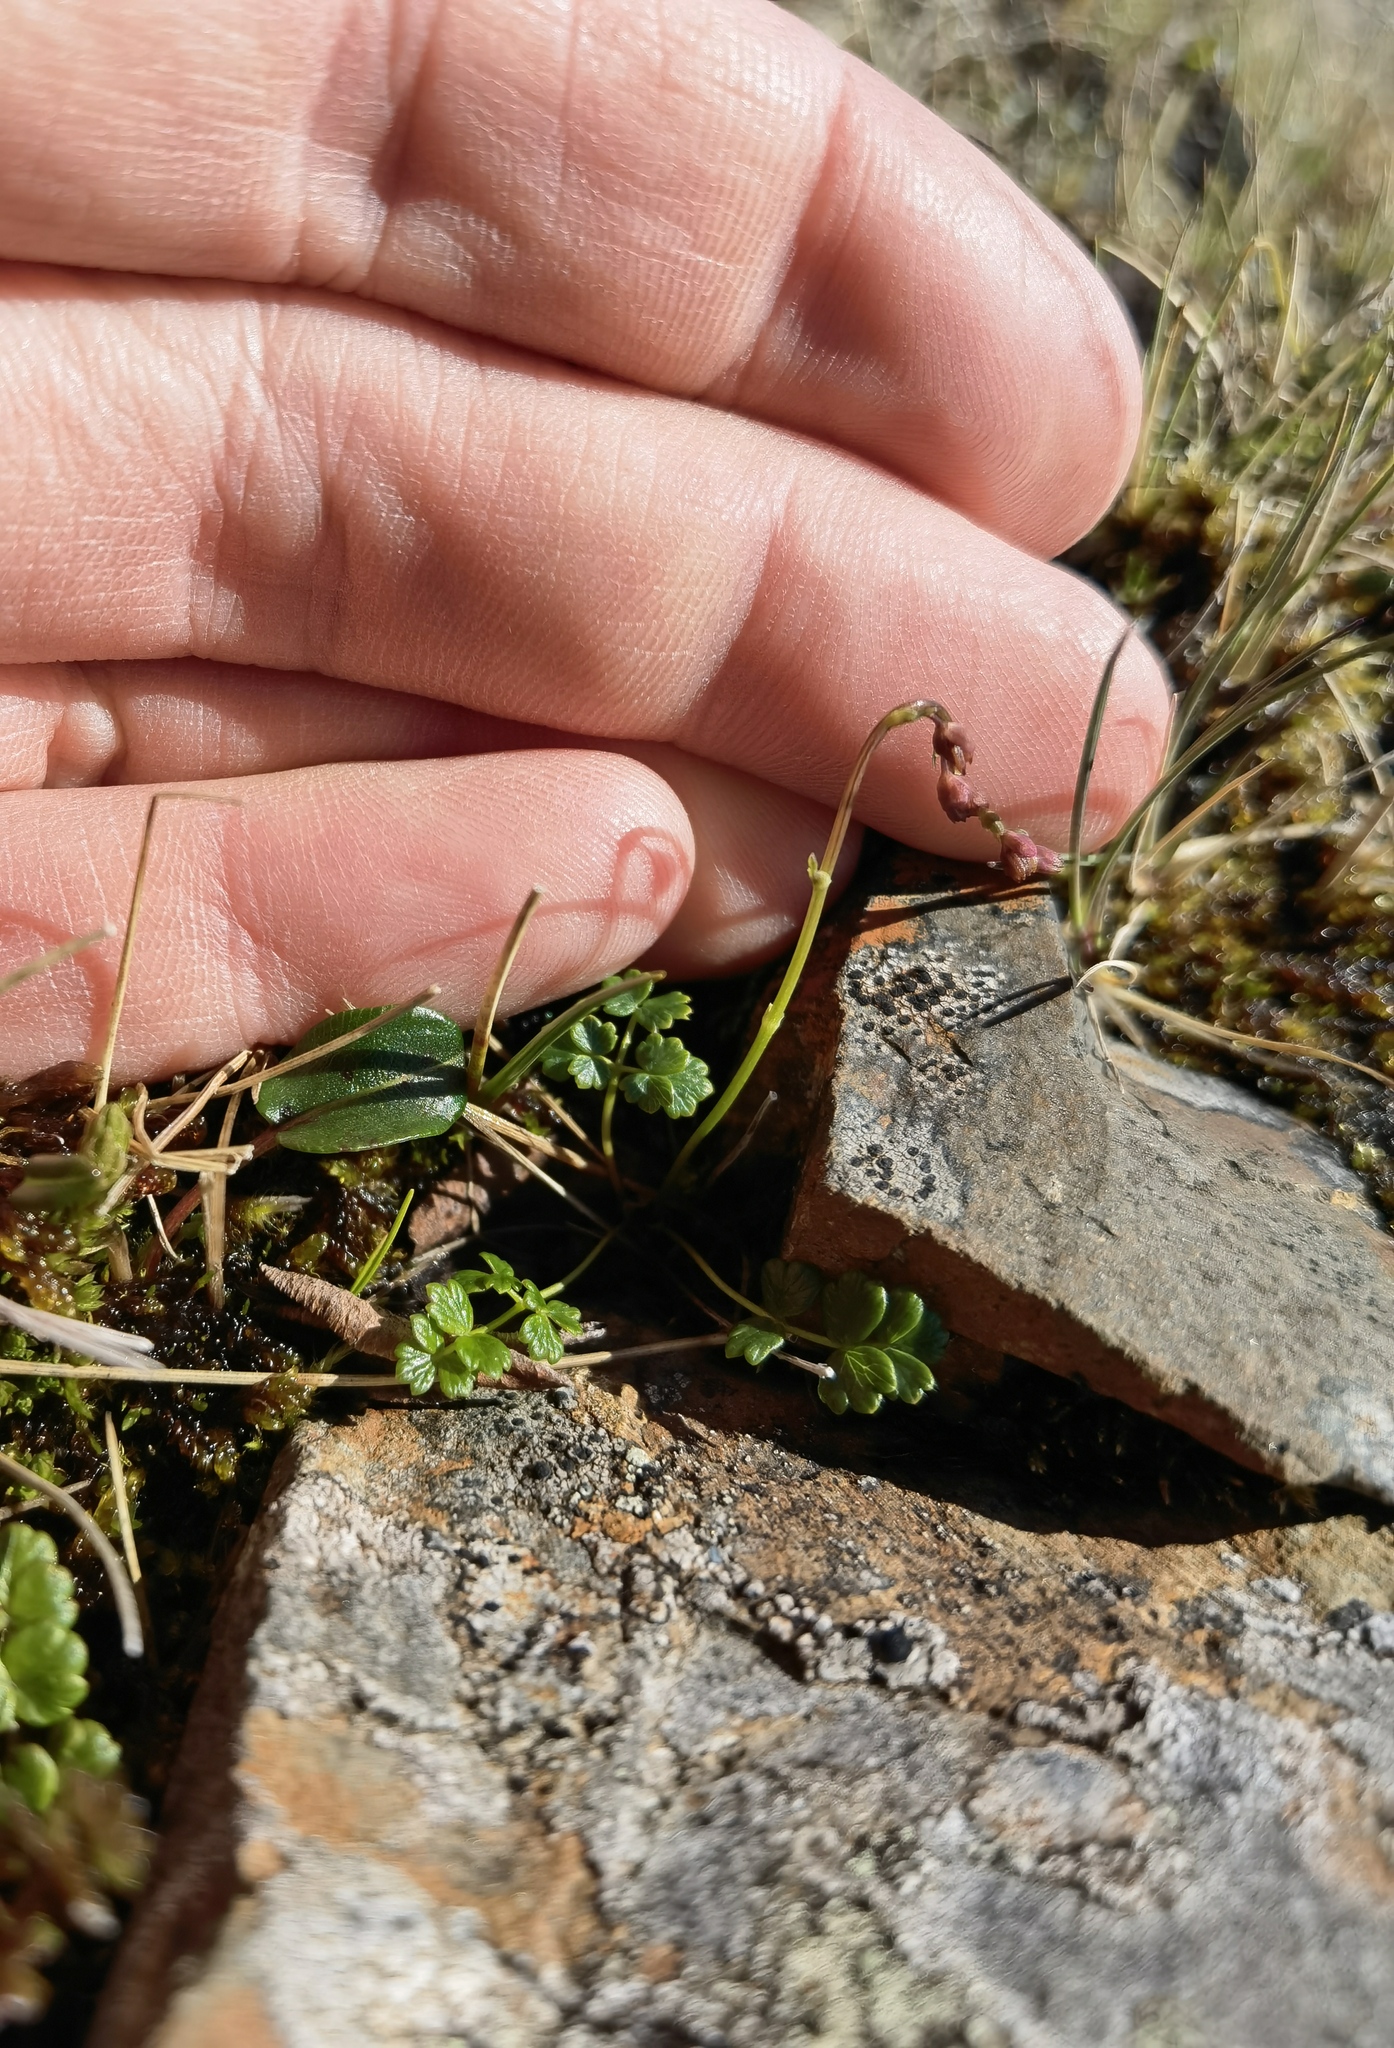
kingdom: Plantae
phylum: Tracheophyta
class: Magnoliopsida
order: Ranunculales
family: Ranunculaceae
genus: Thalictrum
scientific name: Thalictrum alpinum
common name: Alpine meadow-rue
